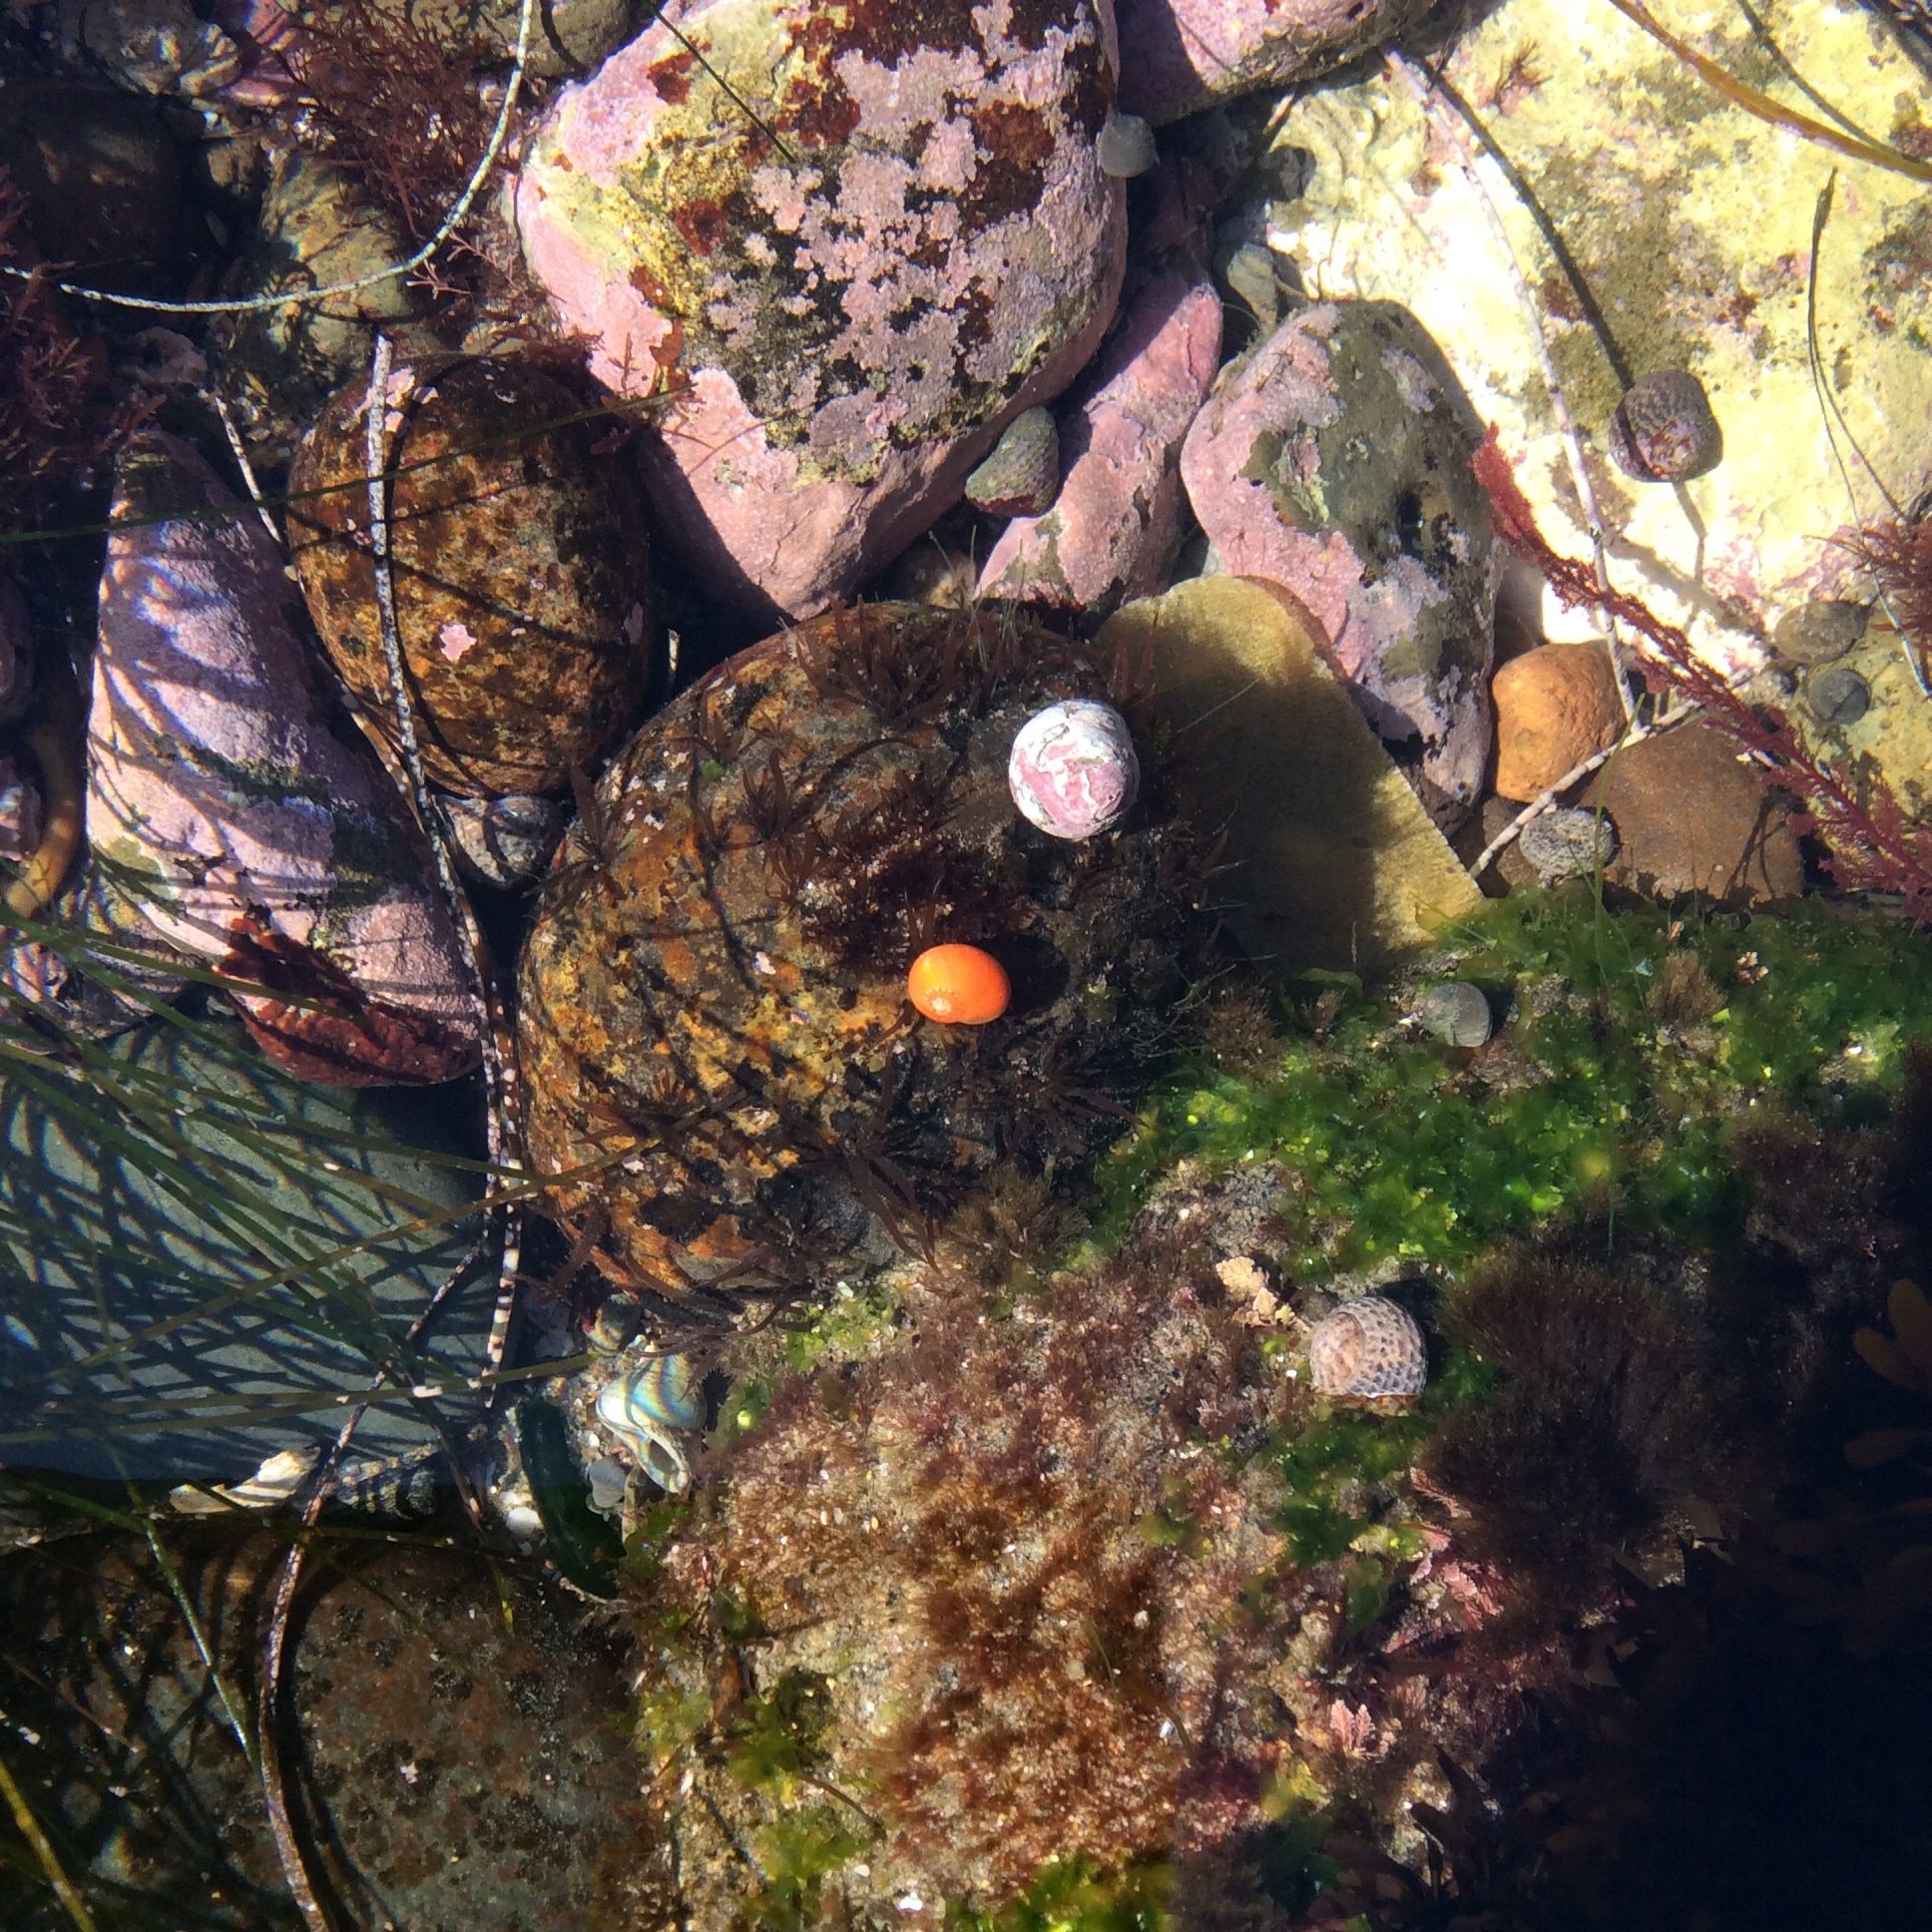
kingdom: Animalia
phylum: Mollusca
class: Gastropoda
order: Trochida
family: Tegulidae
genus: Norrisia
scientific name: Norrisia norrisii
